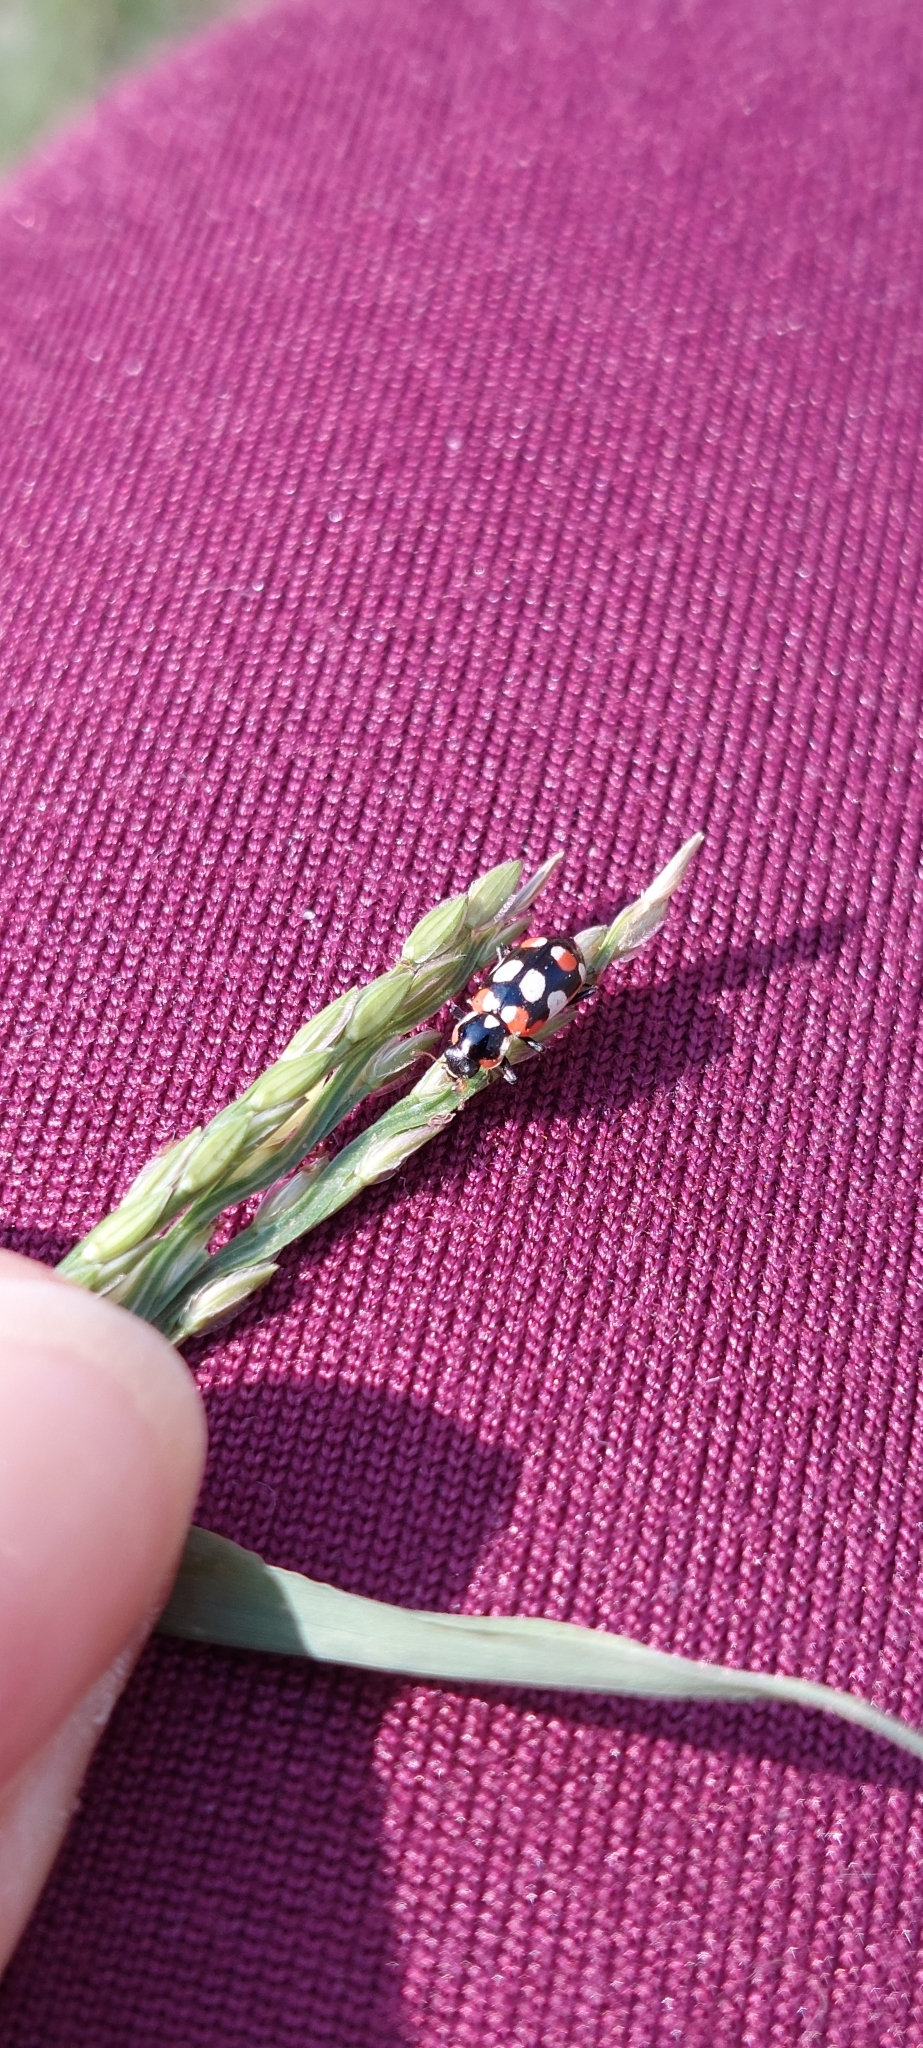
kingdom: Animalia
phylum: Arthropoda
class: Insecta
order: Coleoptera
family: Coccinellidae
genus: Eriopis
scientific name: Eriopis connexa
